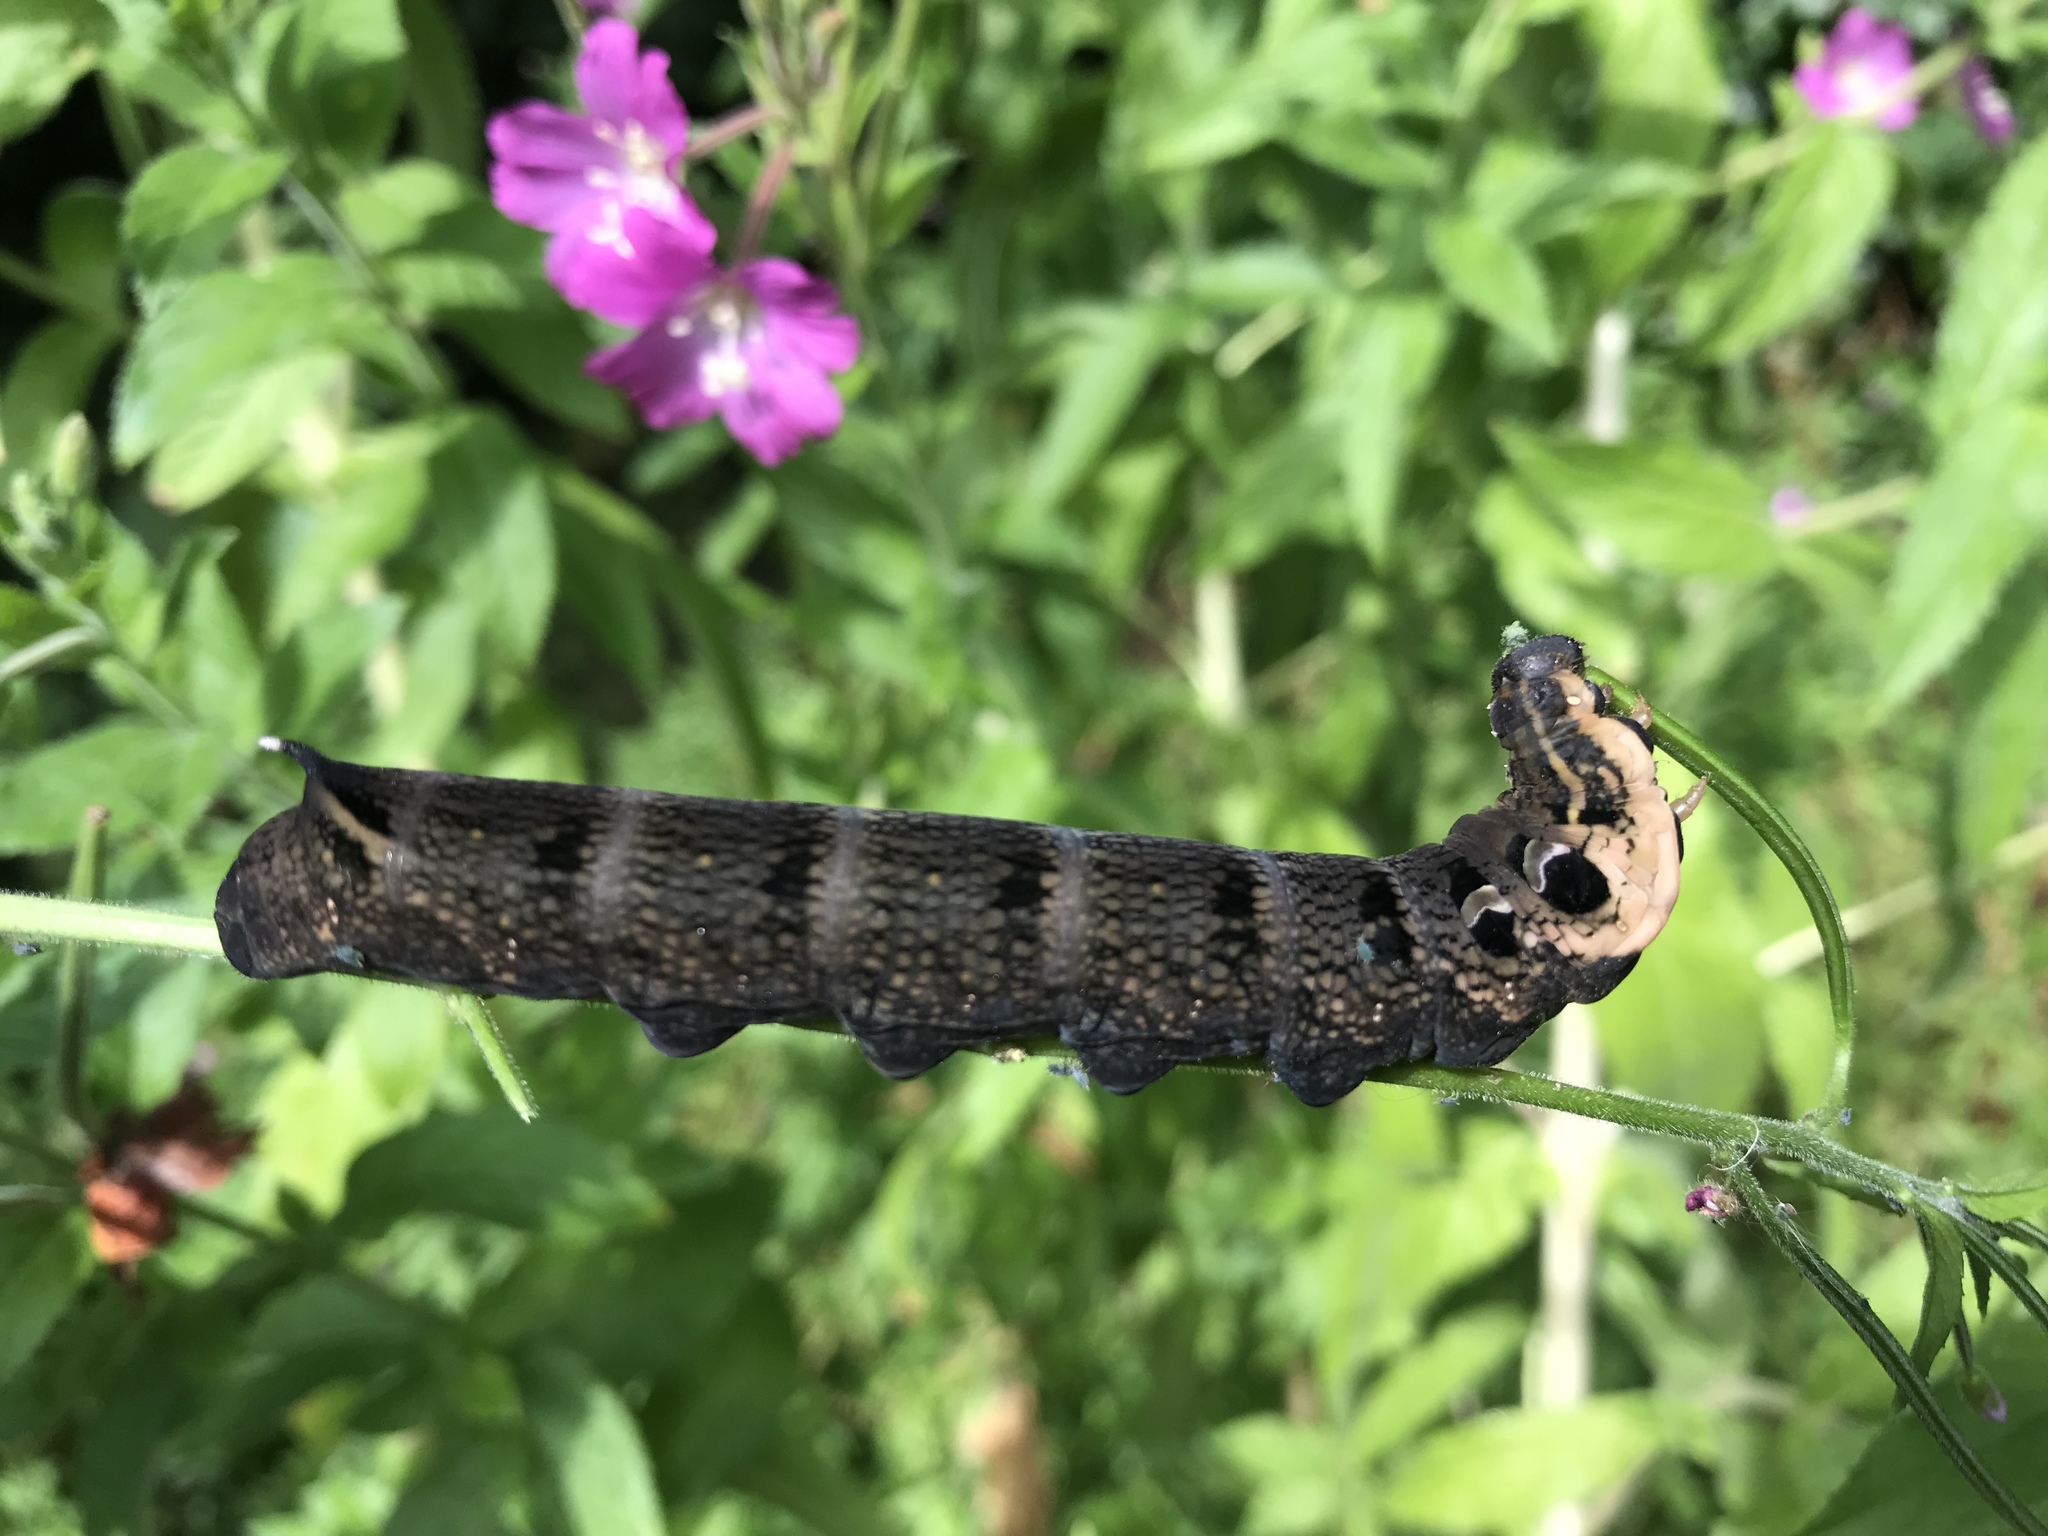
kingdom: Animalia
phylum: Arthropoda
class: Insecta
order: Lepidoptera
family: Sphingidae
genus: Deilephila
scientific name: Deilephila elpenor
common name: Elephant hawk-moth
